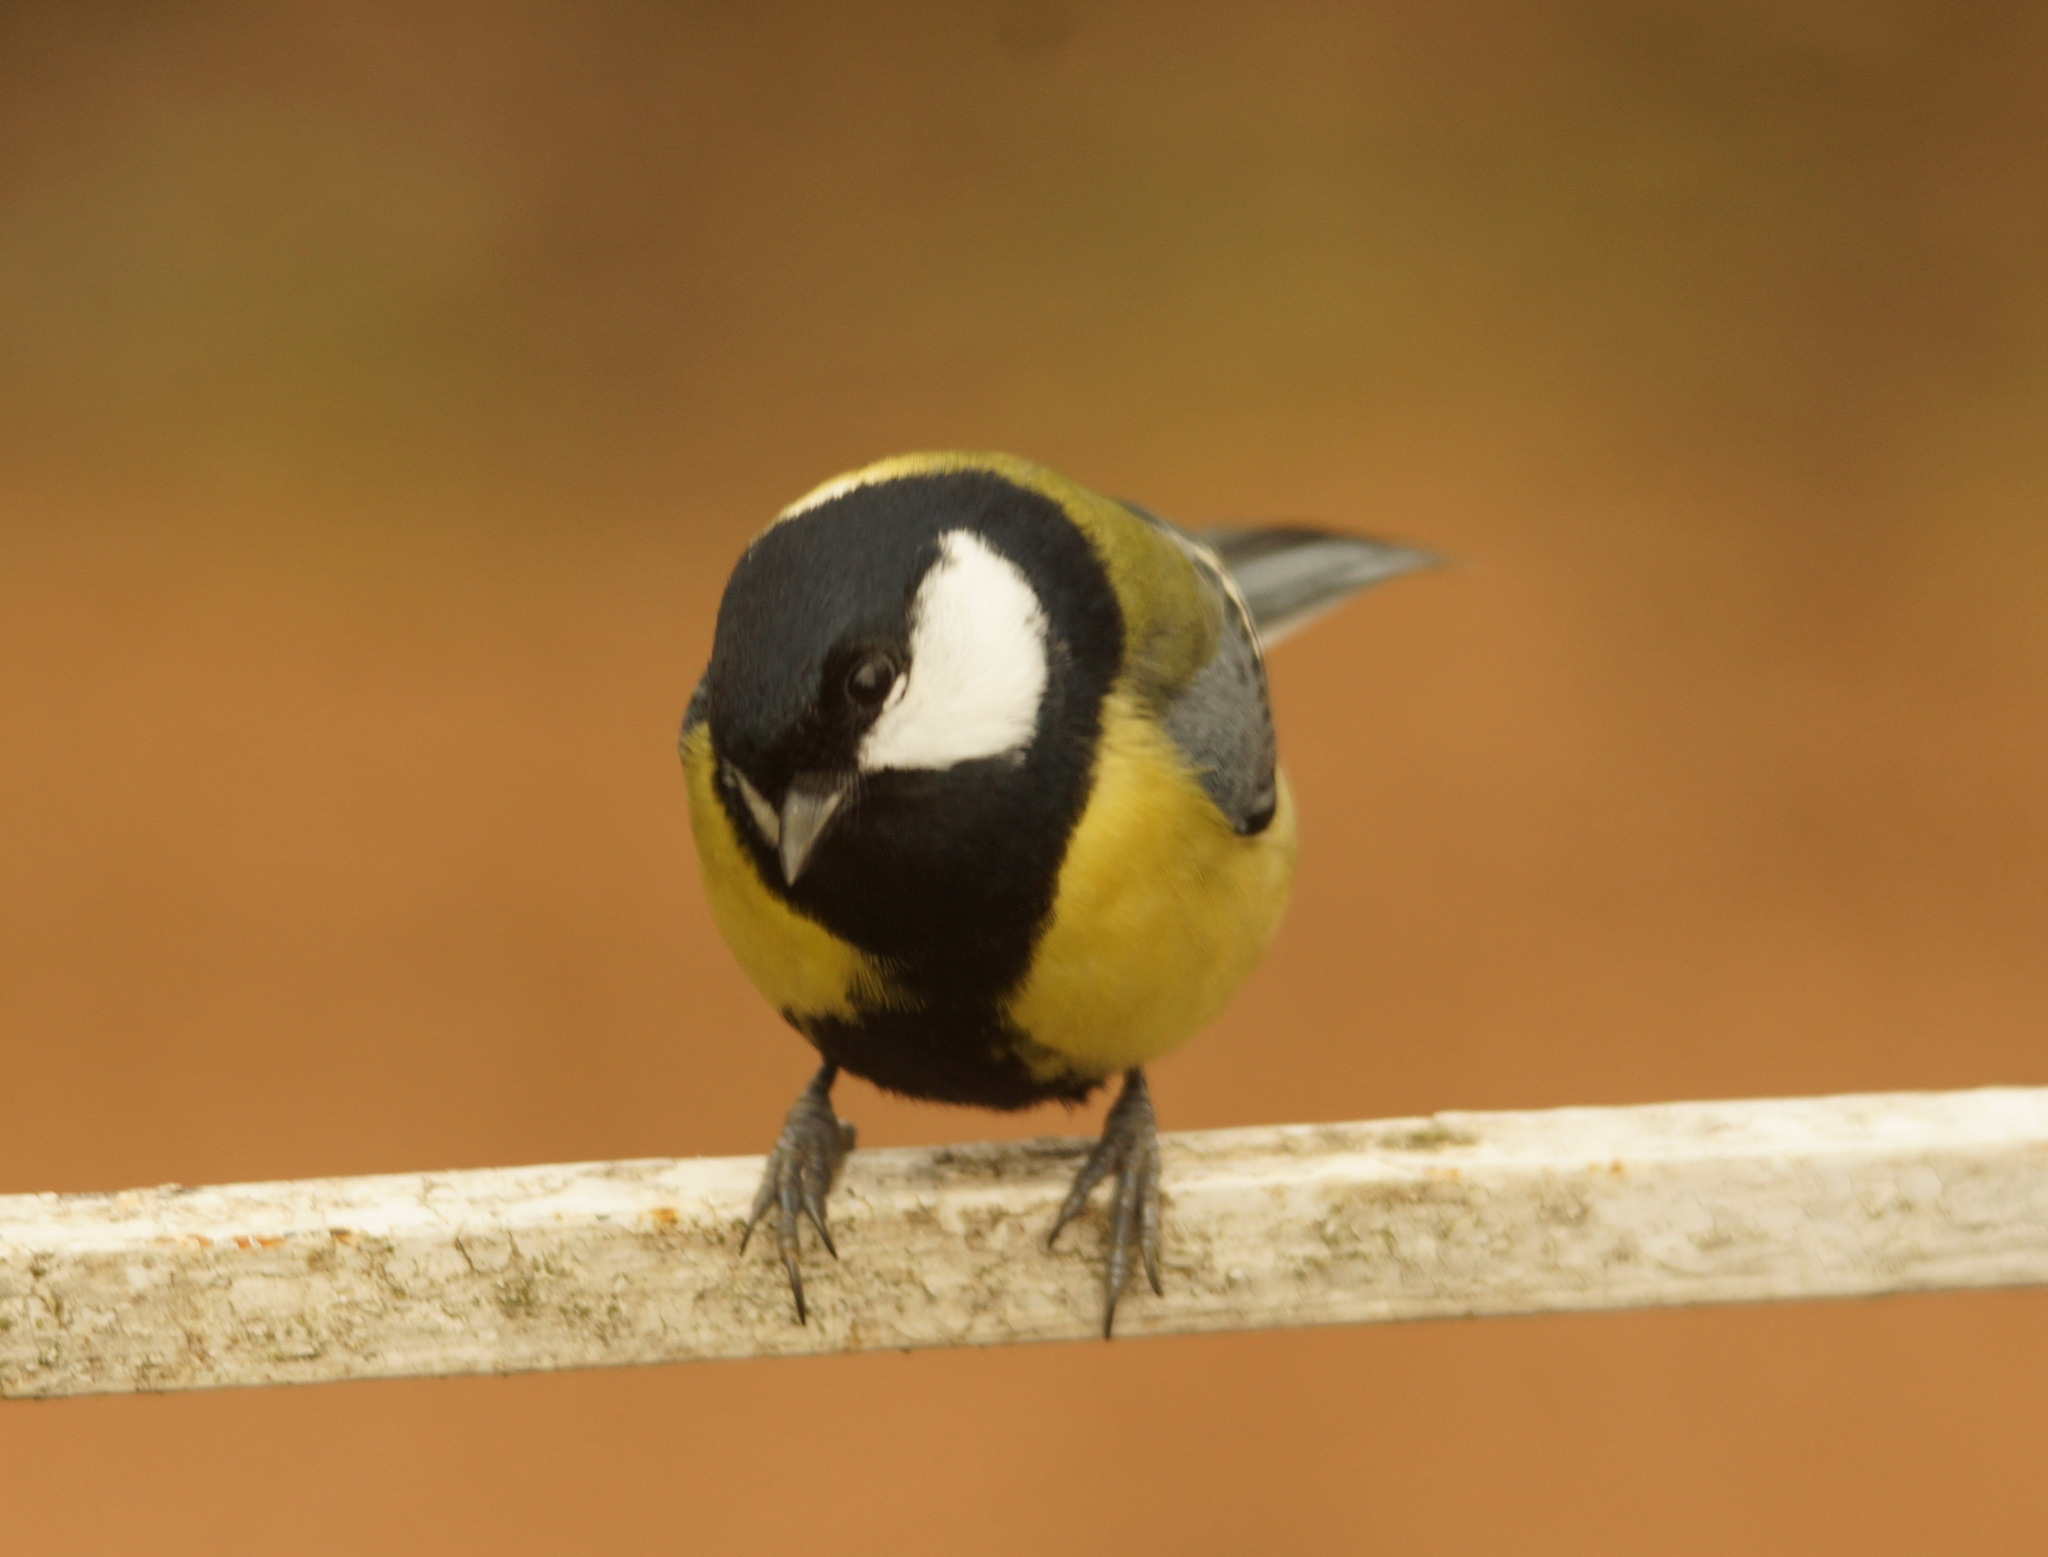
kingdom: Animalia
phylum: Chordata
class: Aves
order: Passeriformes
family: Paridae
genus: Parus
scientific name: Parus major
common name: Great tit
